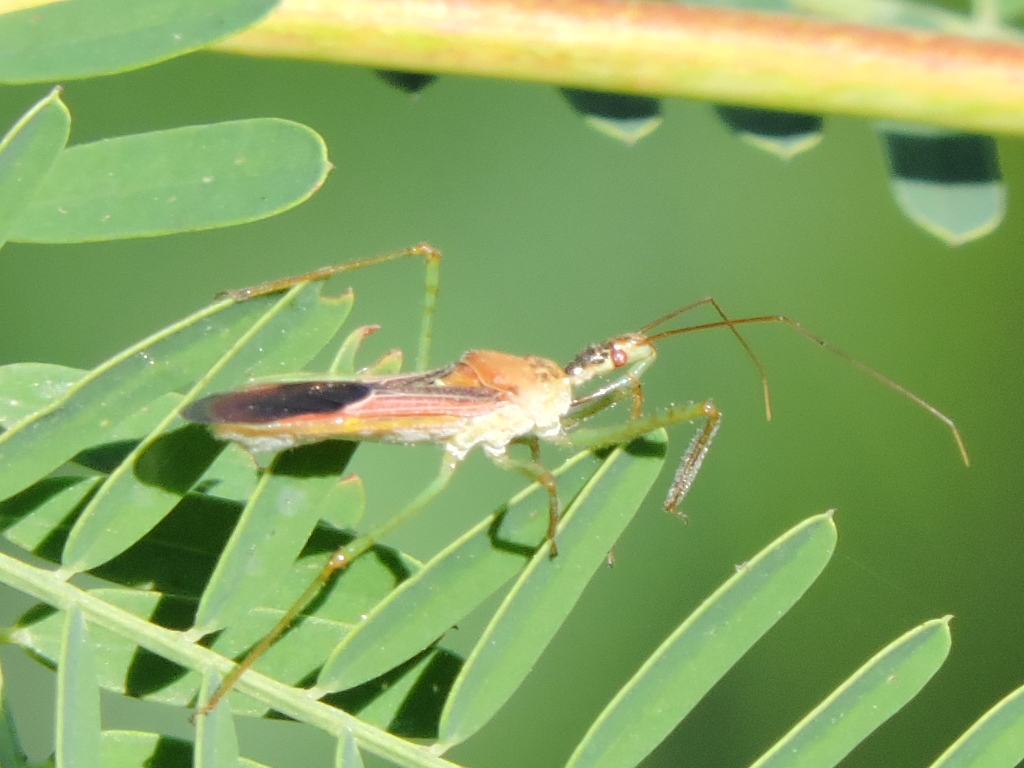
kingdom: Animalia
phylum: Arthropoda
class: Insecta
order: Hemiptera
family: Reduviidae
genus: Zelus
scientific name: Zelus renardii
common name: Assassin bug
